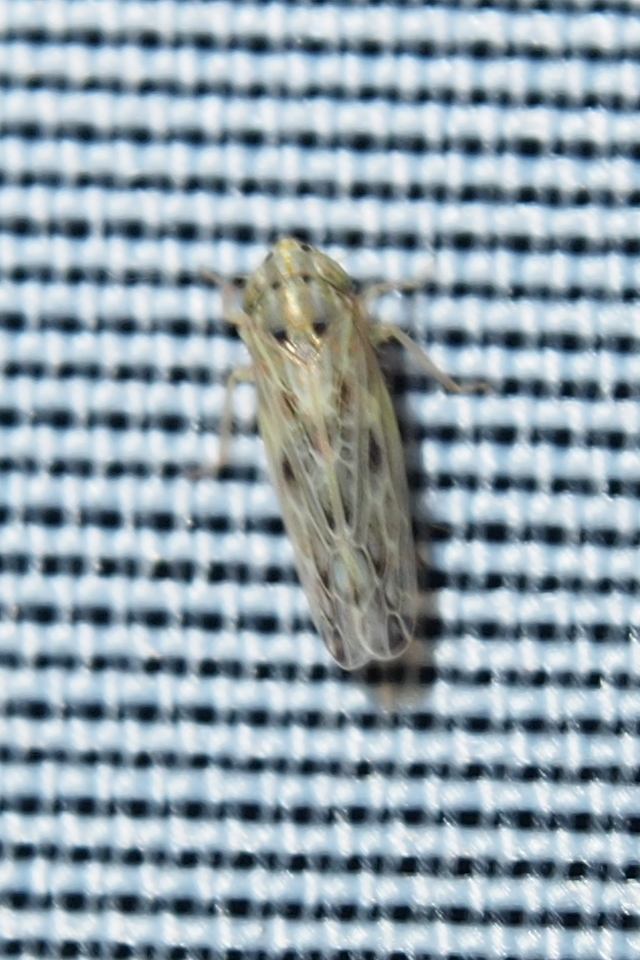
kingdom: Animalia
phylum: Arthropoda
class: Insecta
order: Hemiptera
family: Cicadellidae
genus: Endria
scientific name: Endria inimicus
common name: Painted leafhopper
